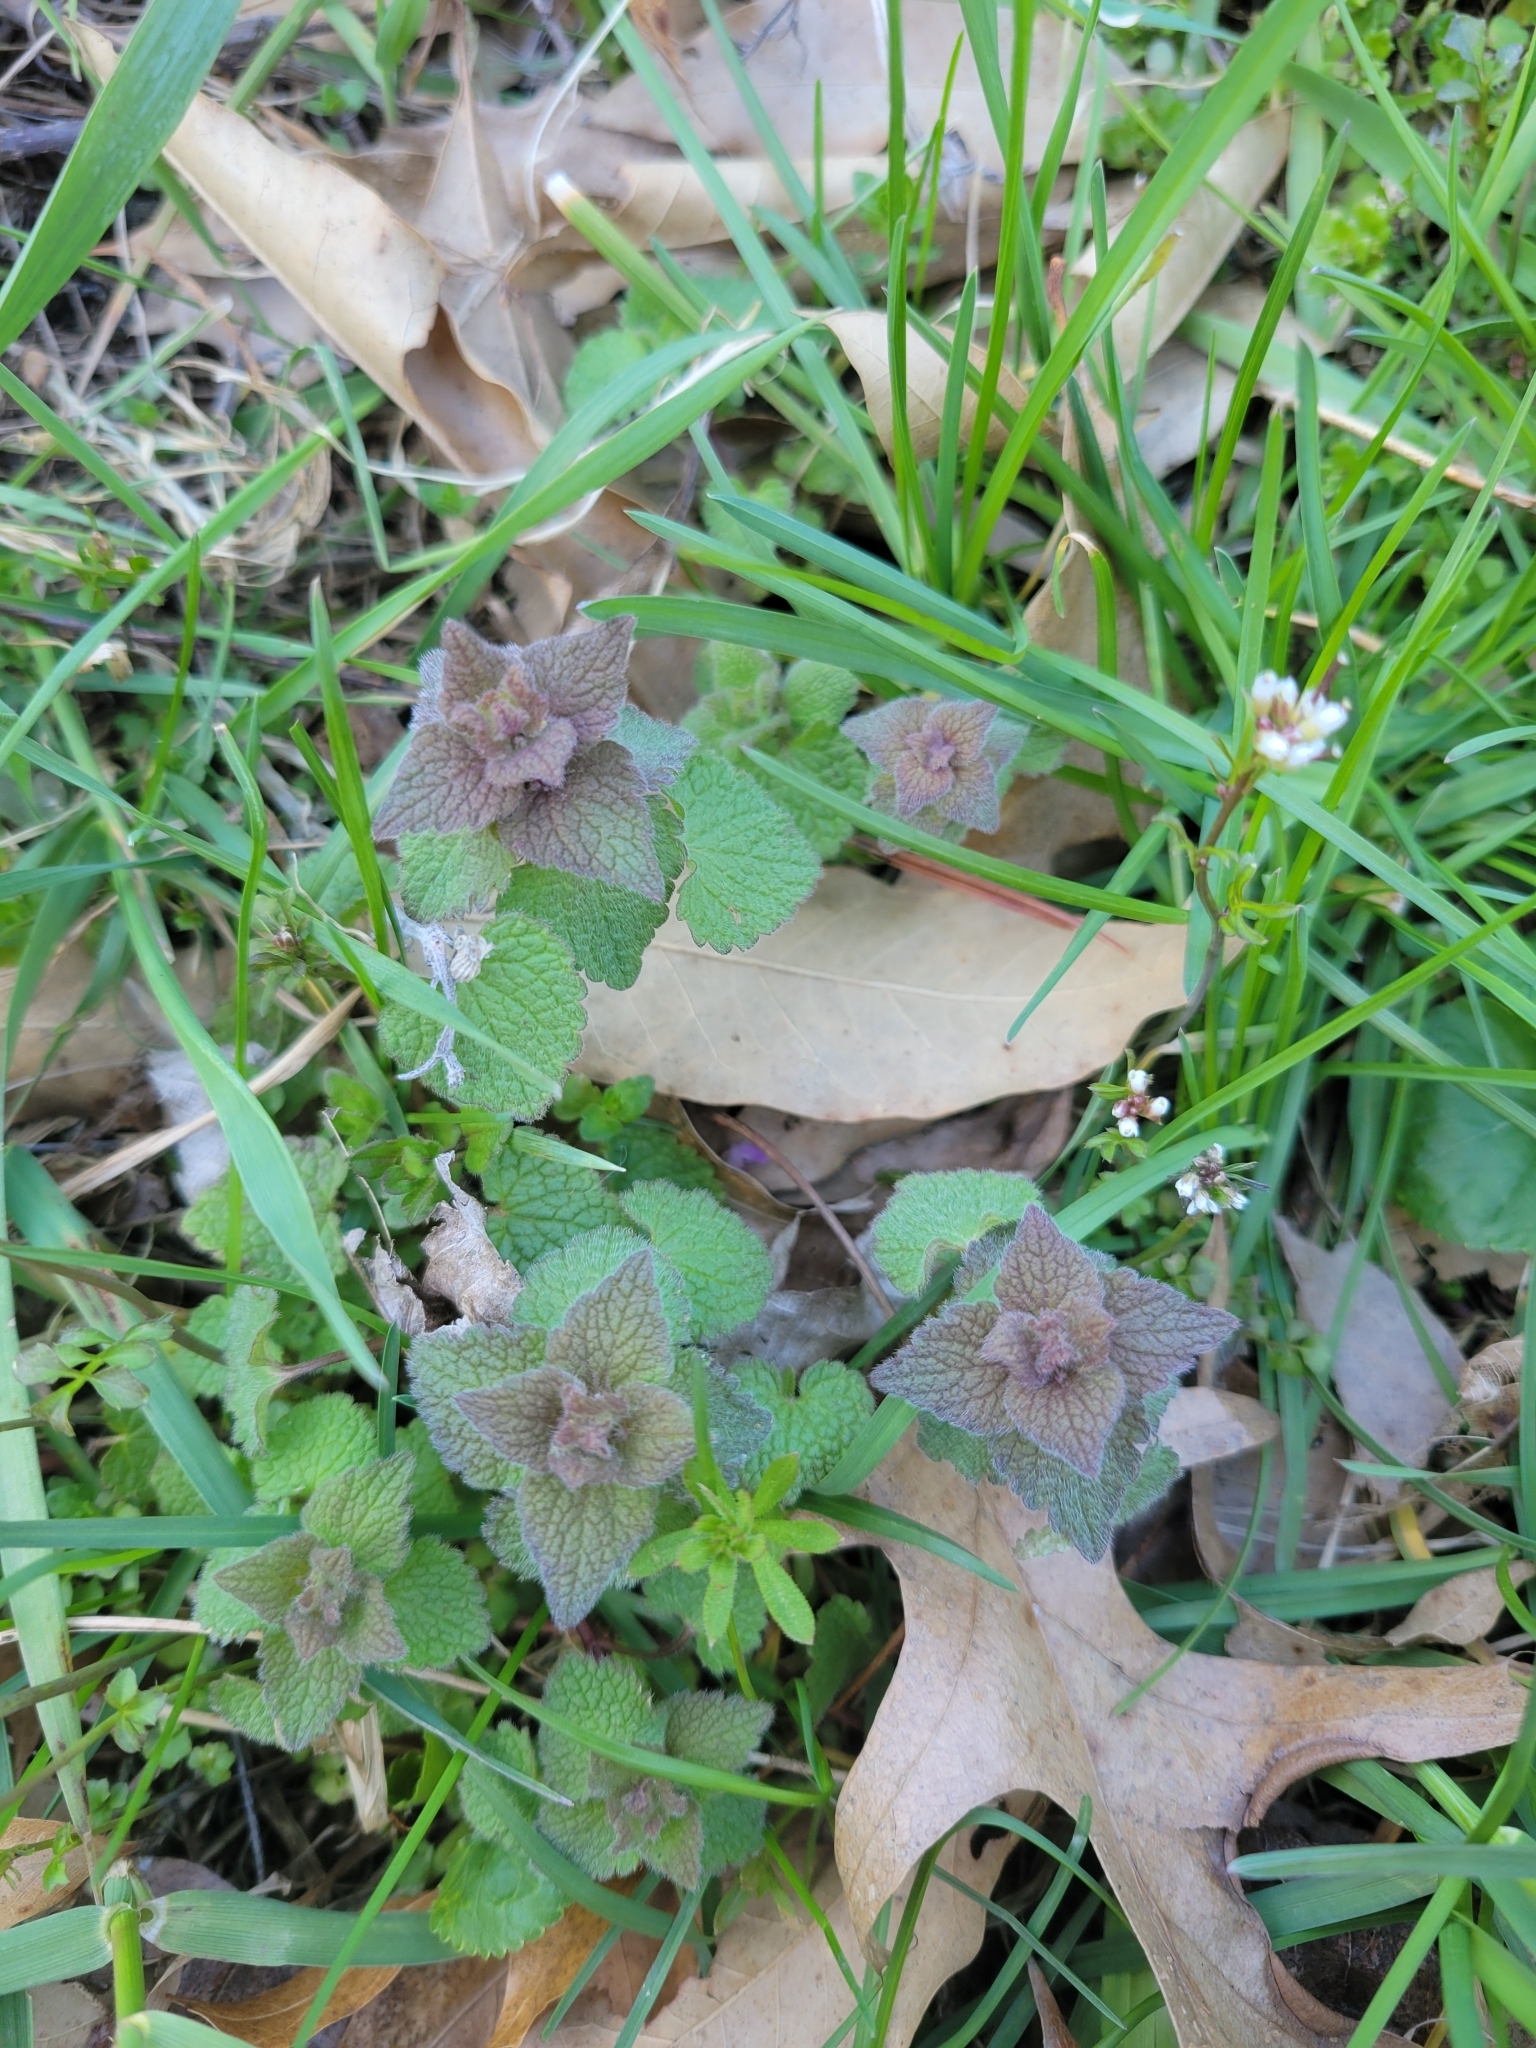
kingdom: Plantae
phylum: Tracheophyta
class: Magnoliopsida
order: Lamiales
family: Lamiaceae
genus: Lamium
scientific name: Lamium purpureum
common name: Red dead-nettle
